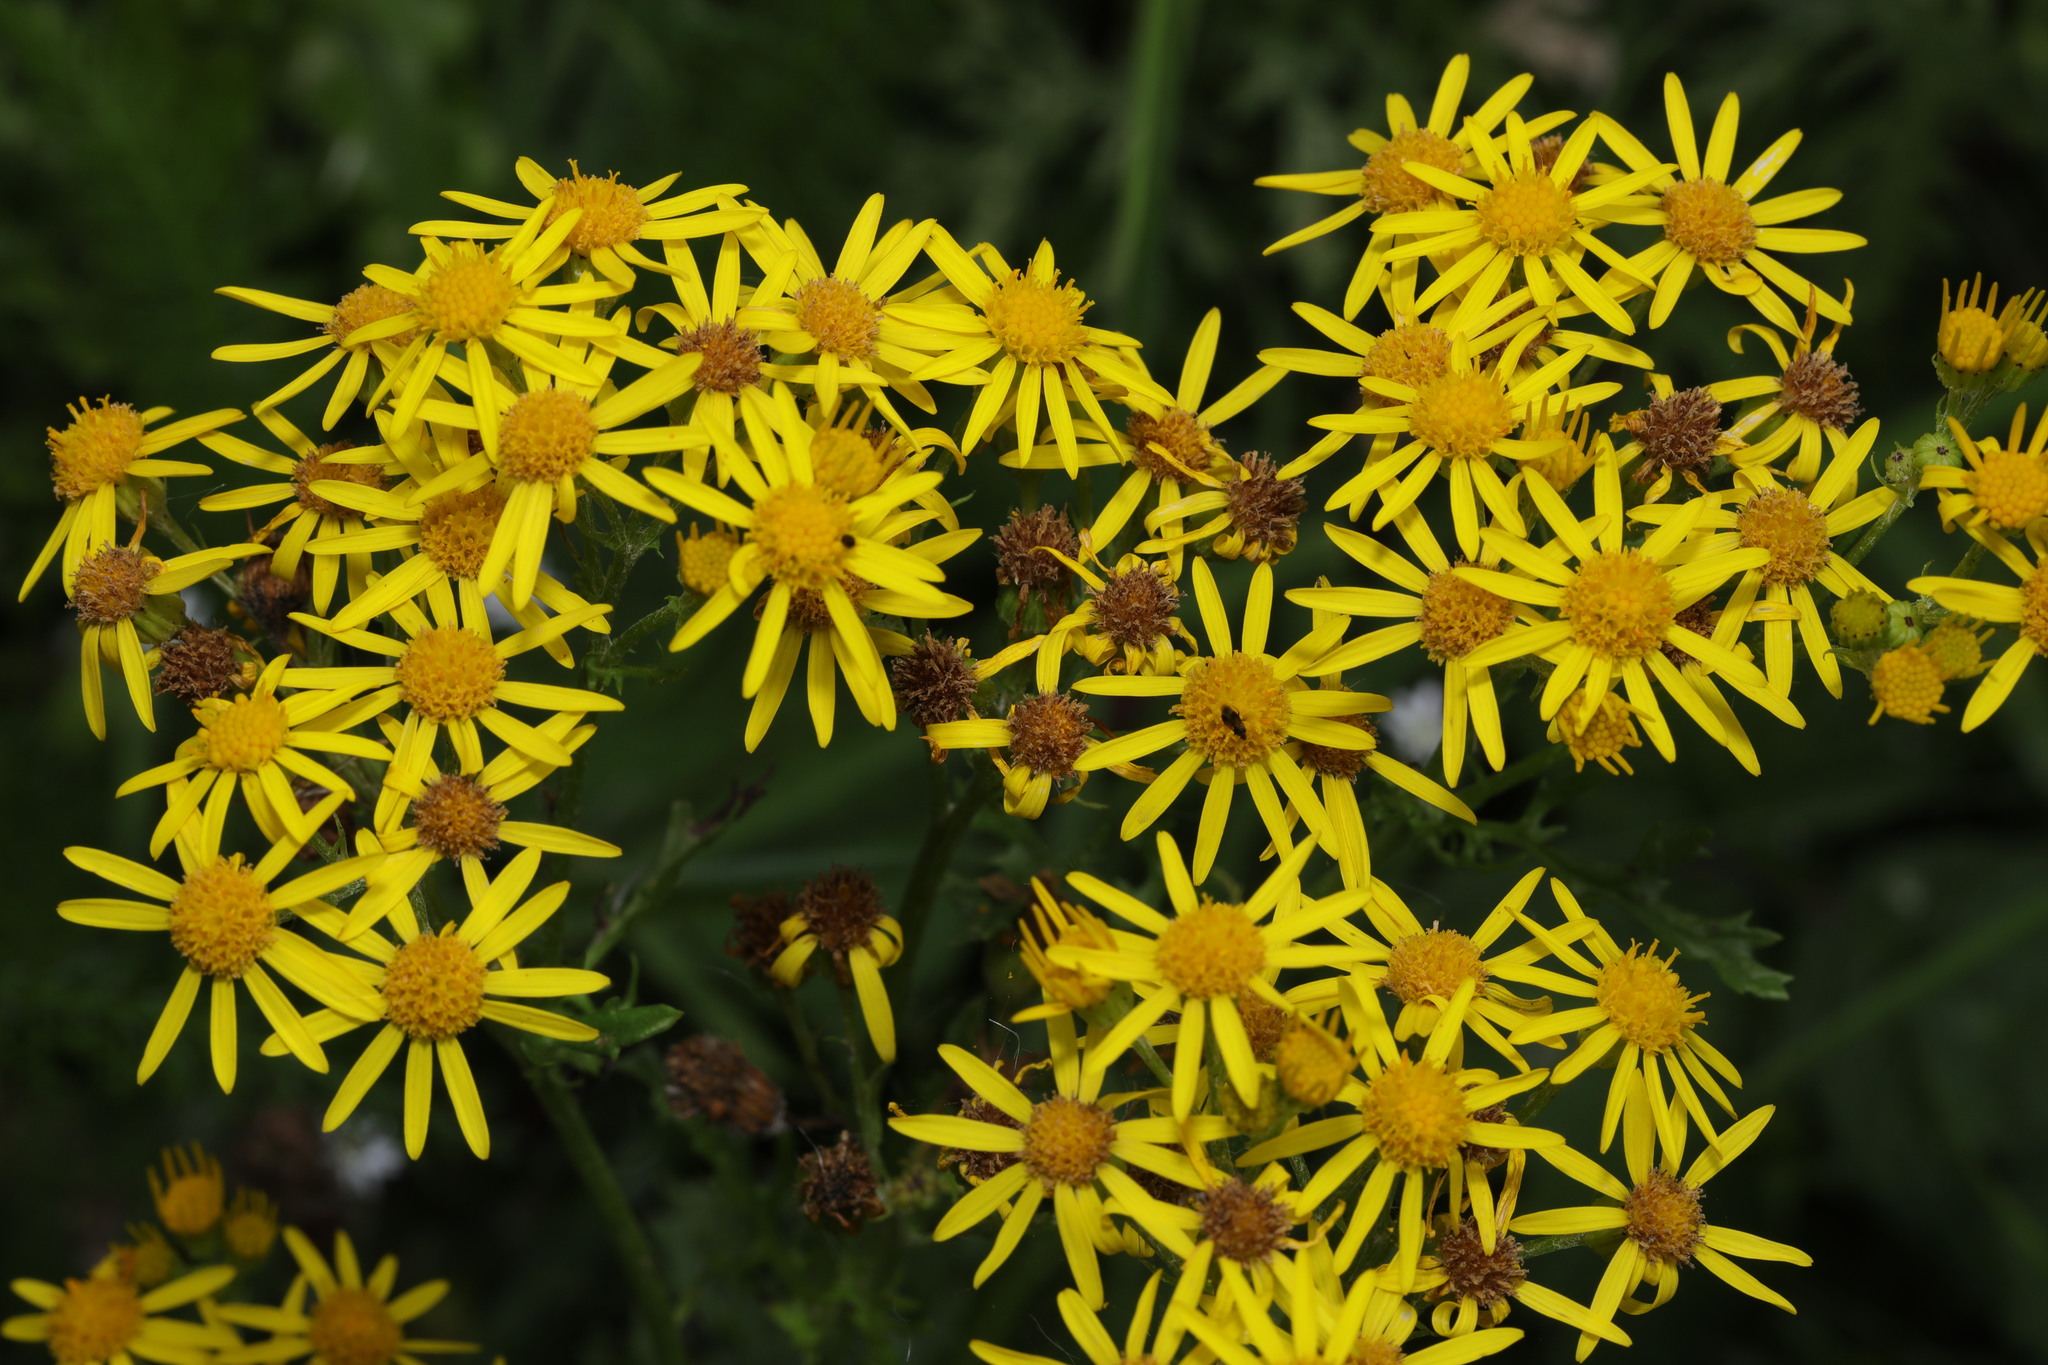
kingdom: Plantae
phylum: Tracheophyta
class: Magnoliopsida
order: Asterales
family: Asteraceae
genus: Jacobaea
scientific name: Jacobaea vulgaris
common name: Stinking willie
